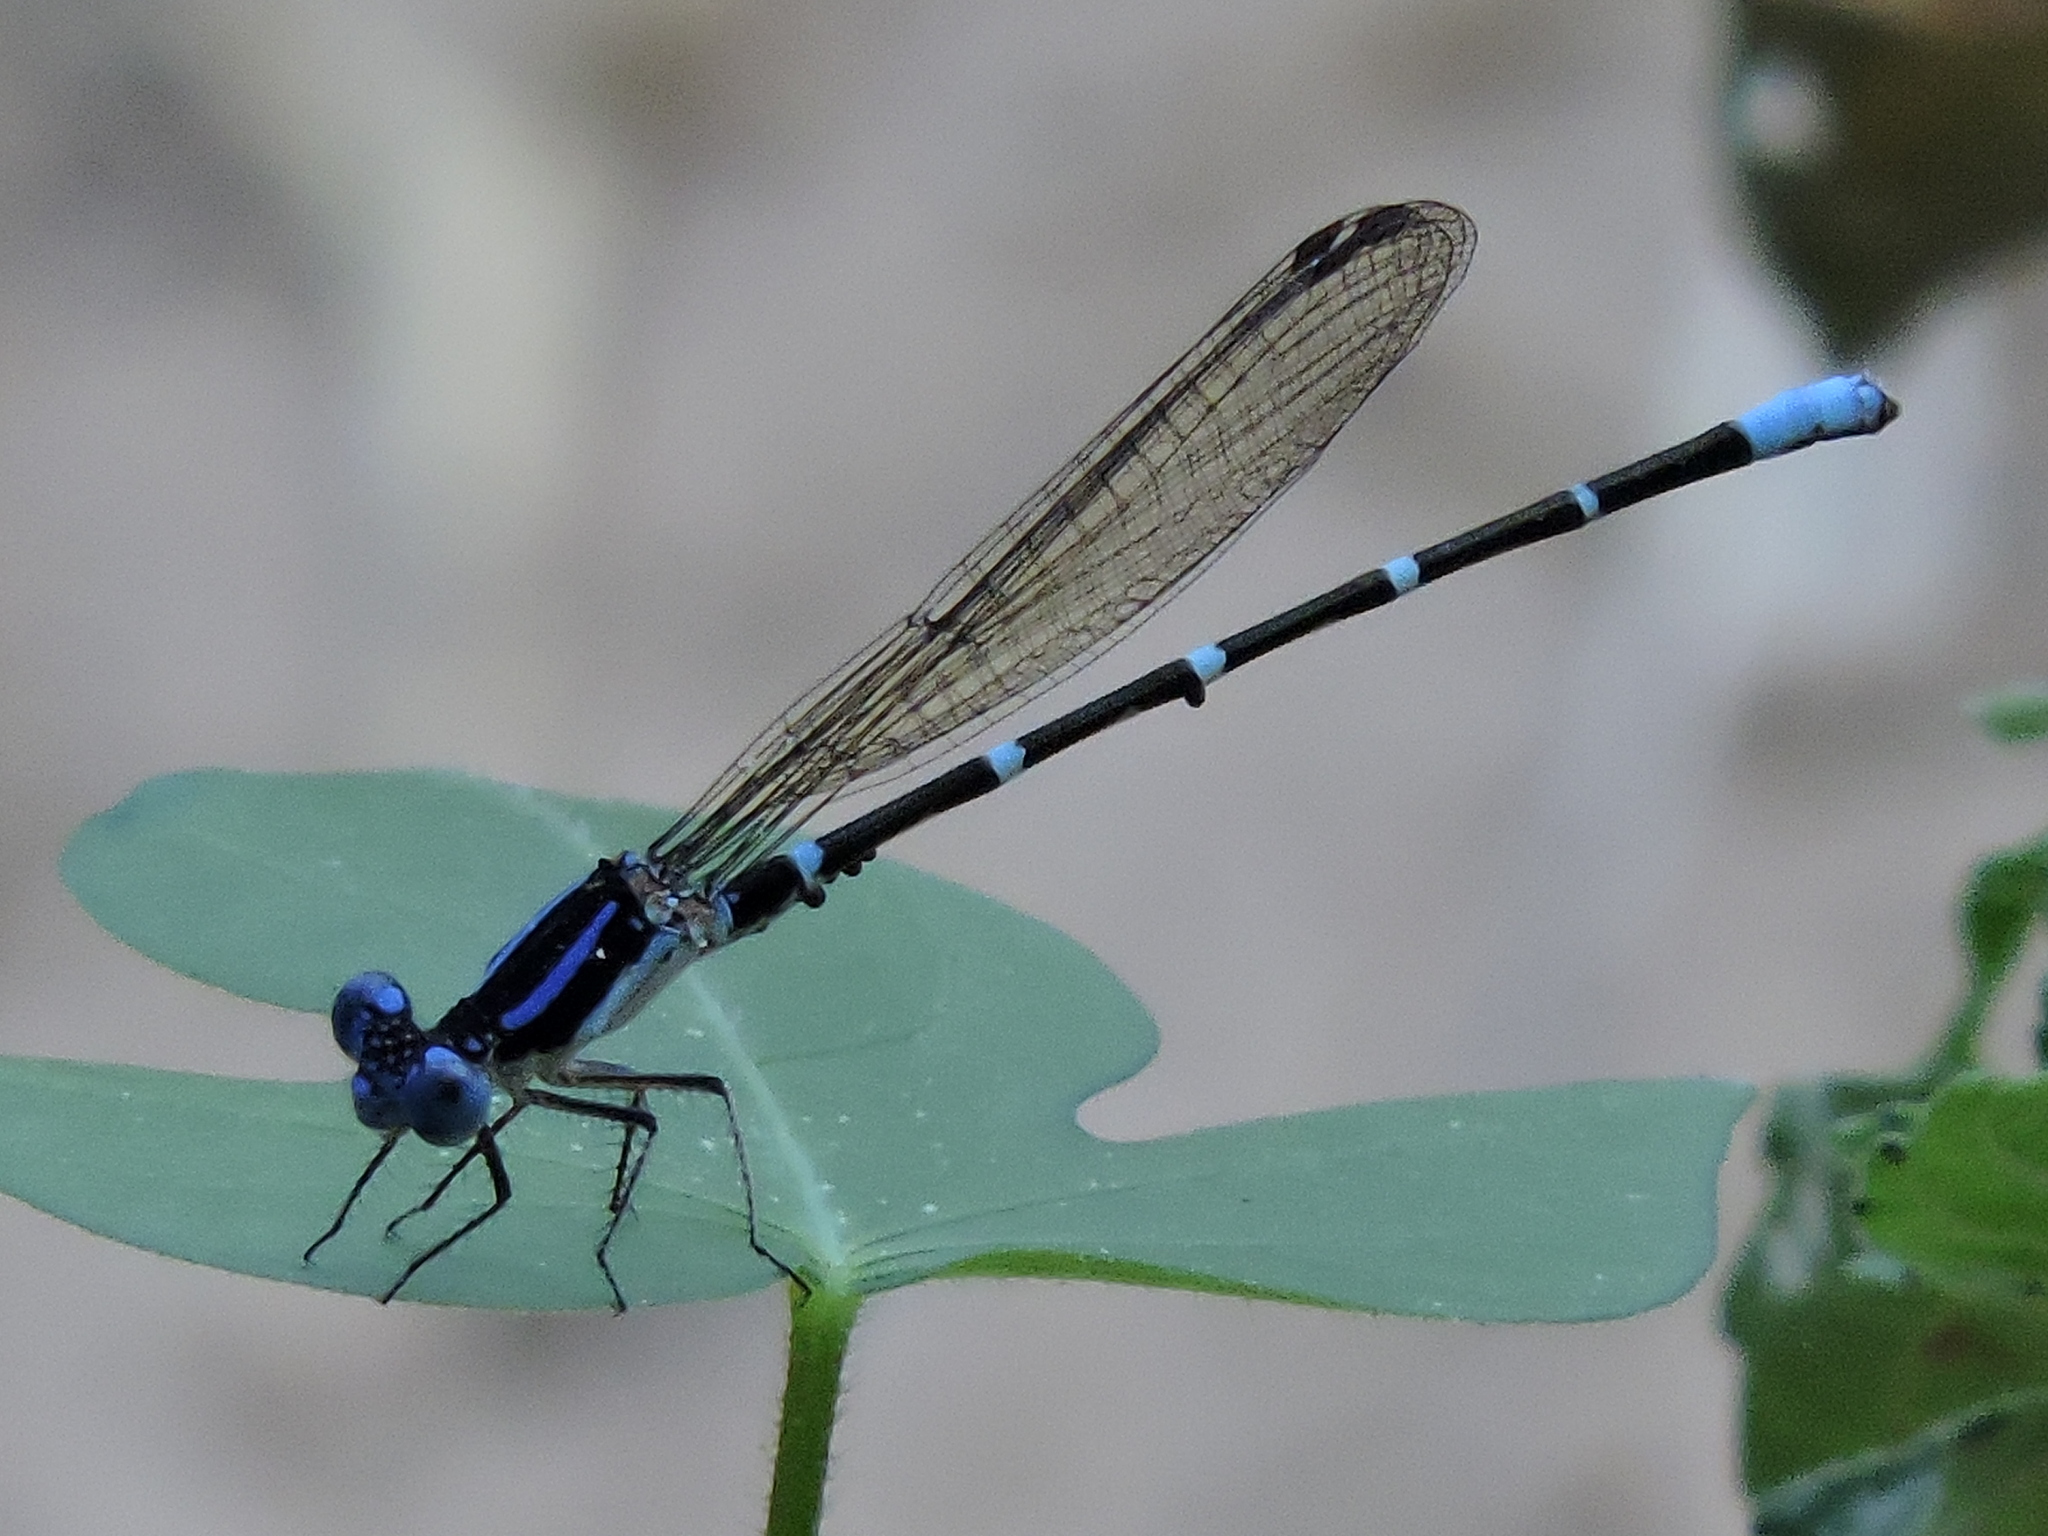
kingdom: Animalia
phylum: Arthropoda
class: Insecta
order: Odonata
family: Coenagrionidae
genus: Argia
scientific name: Argia sedula
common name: Blue-ringed dancer
